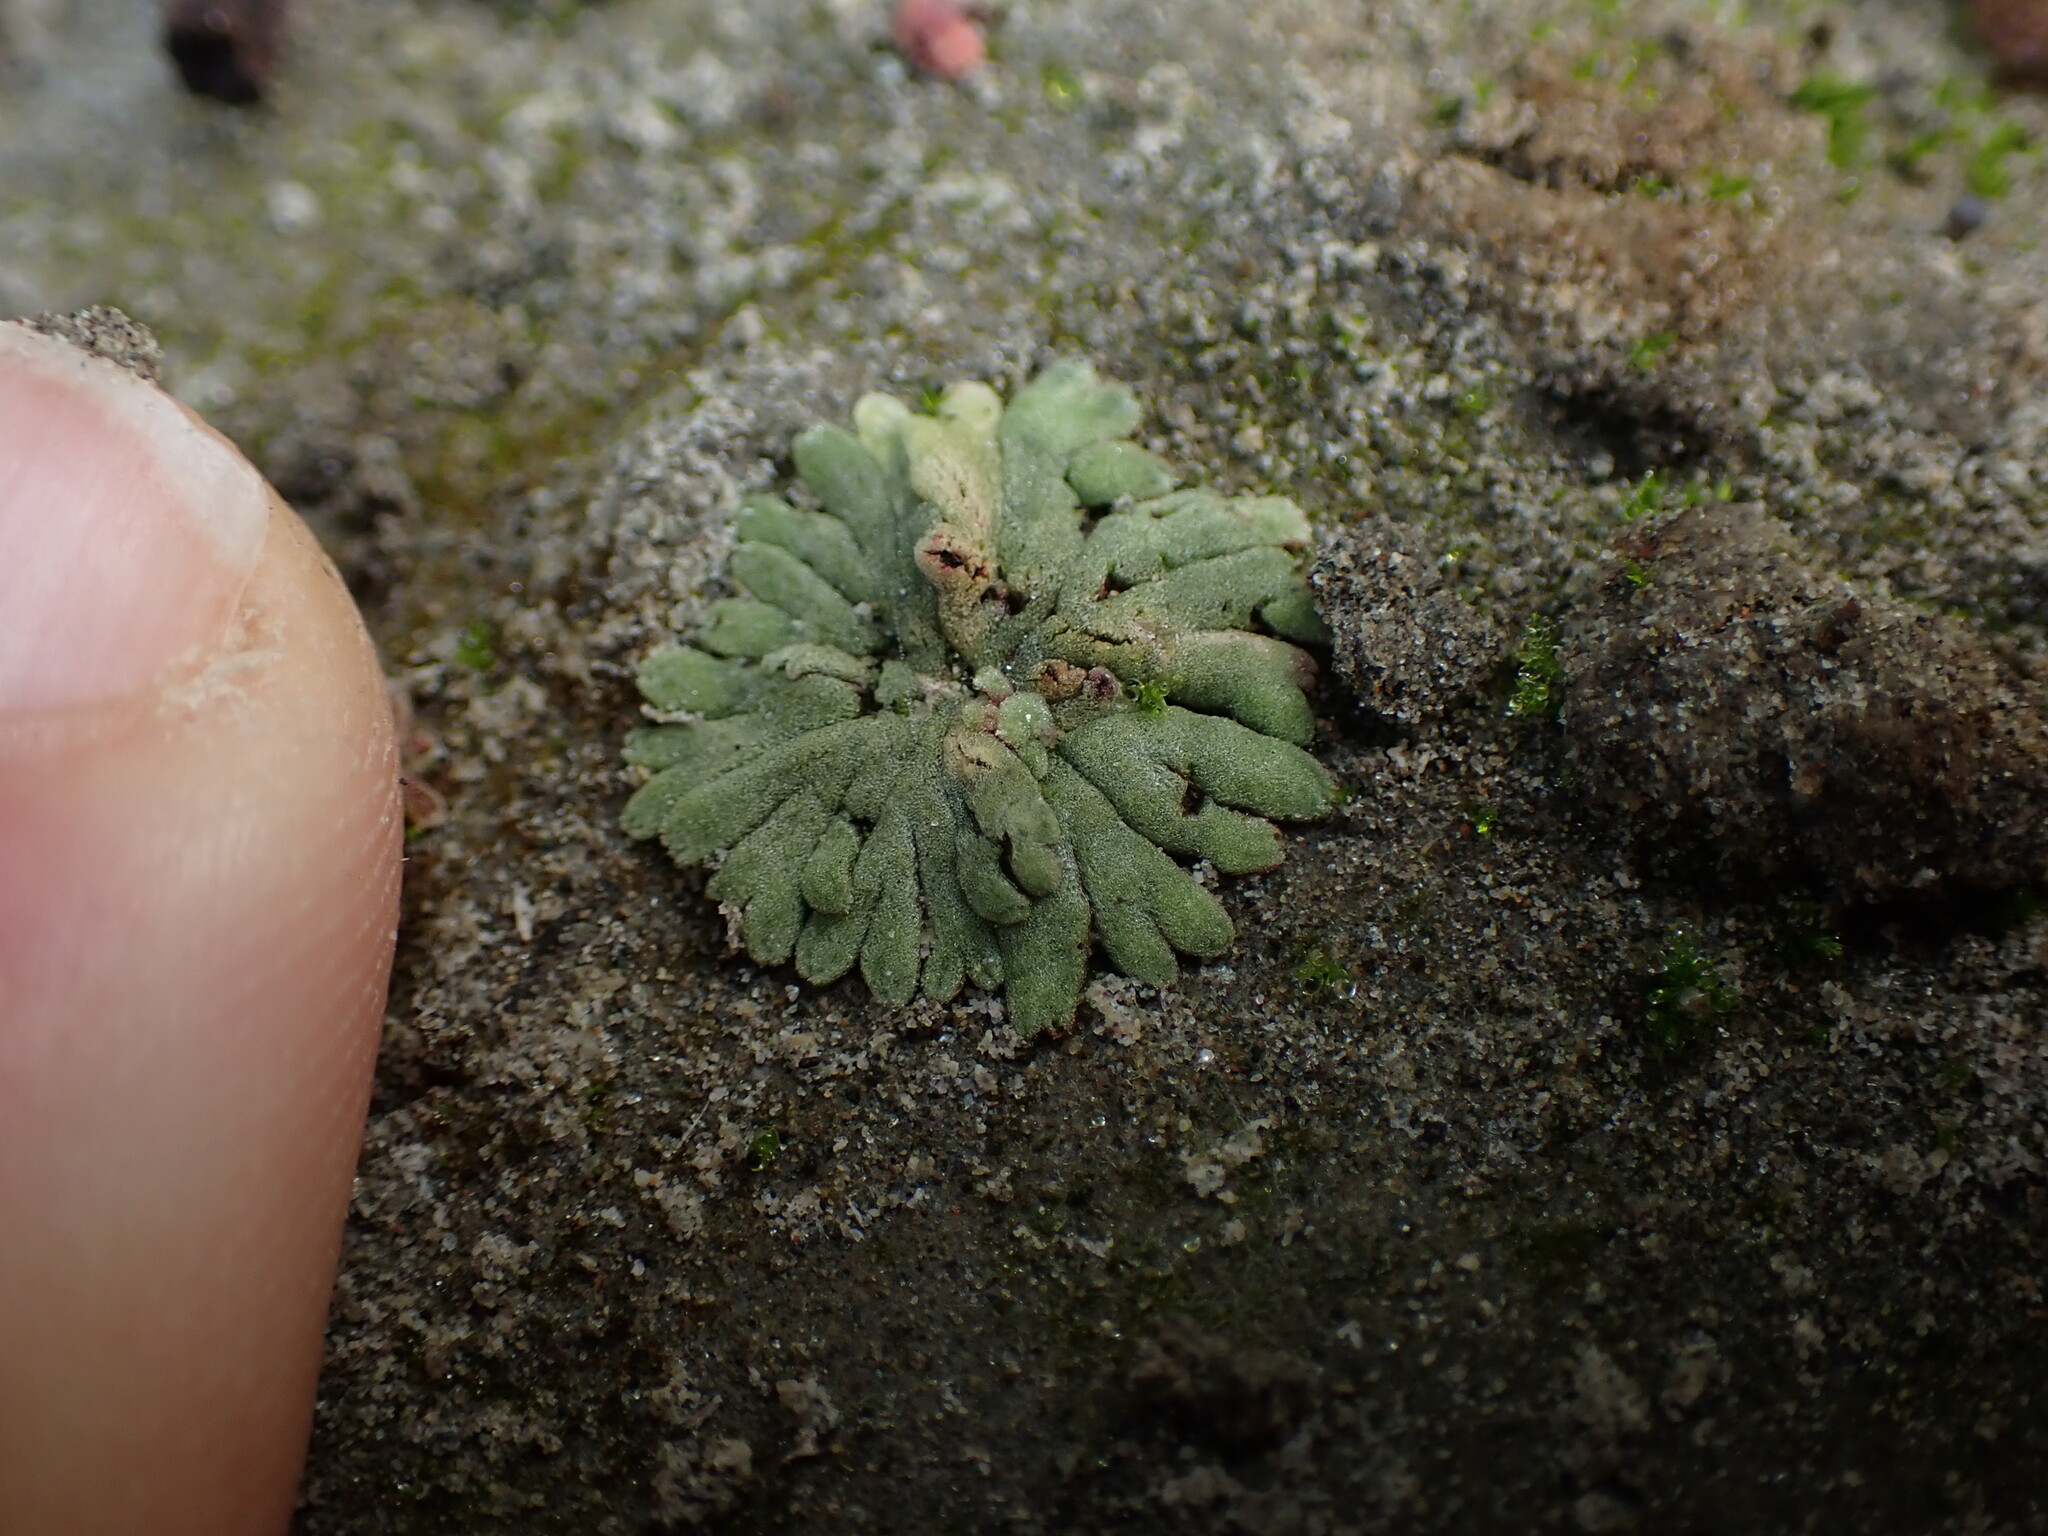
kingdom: Plantae
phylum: Marchantiophyta
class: Marchantiopsida
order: Marchantiales
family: Ricciaceae
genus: Riccia
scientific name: Riccia frostii
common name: Frost s crystalwort
